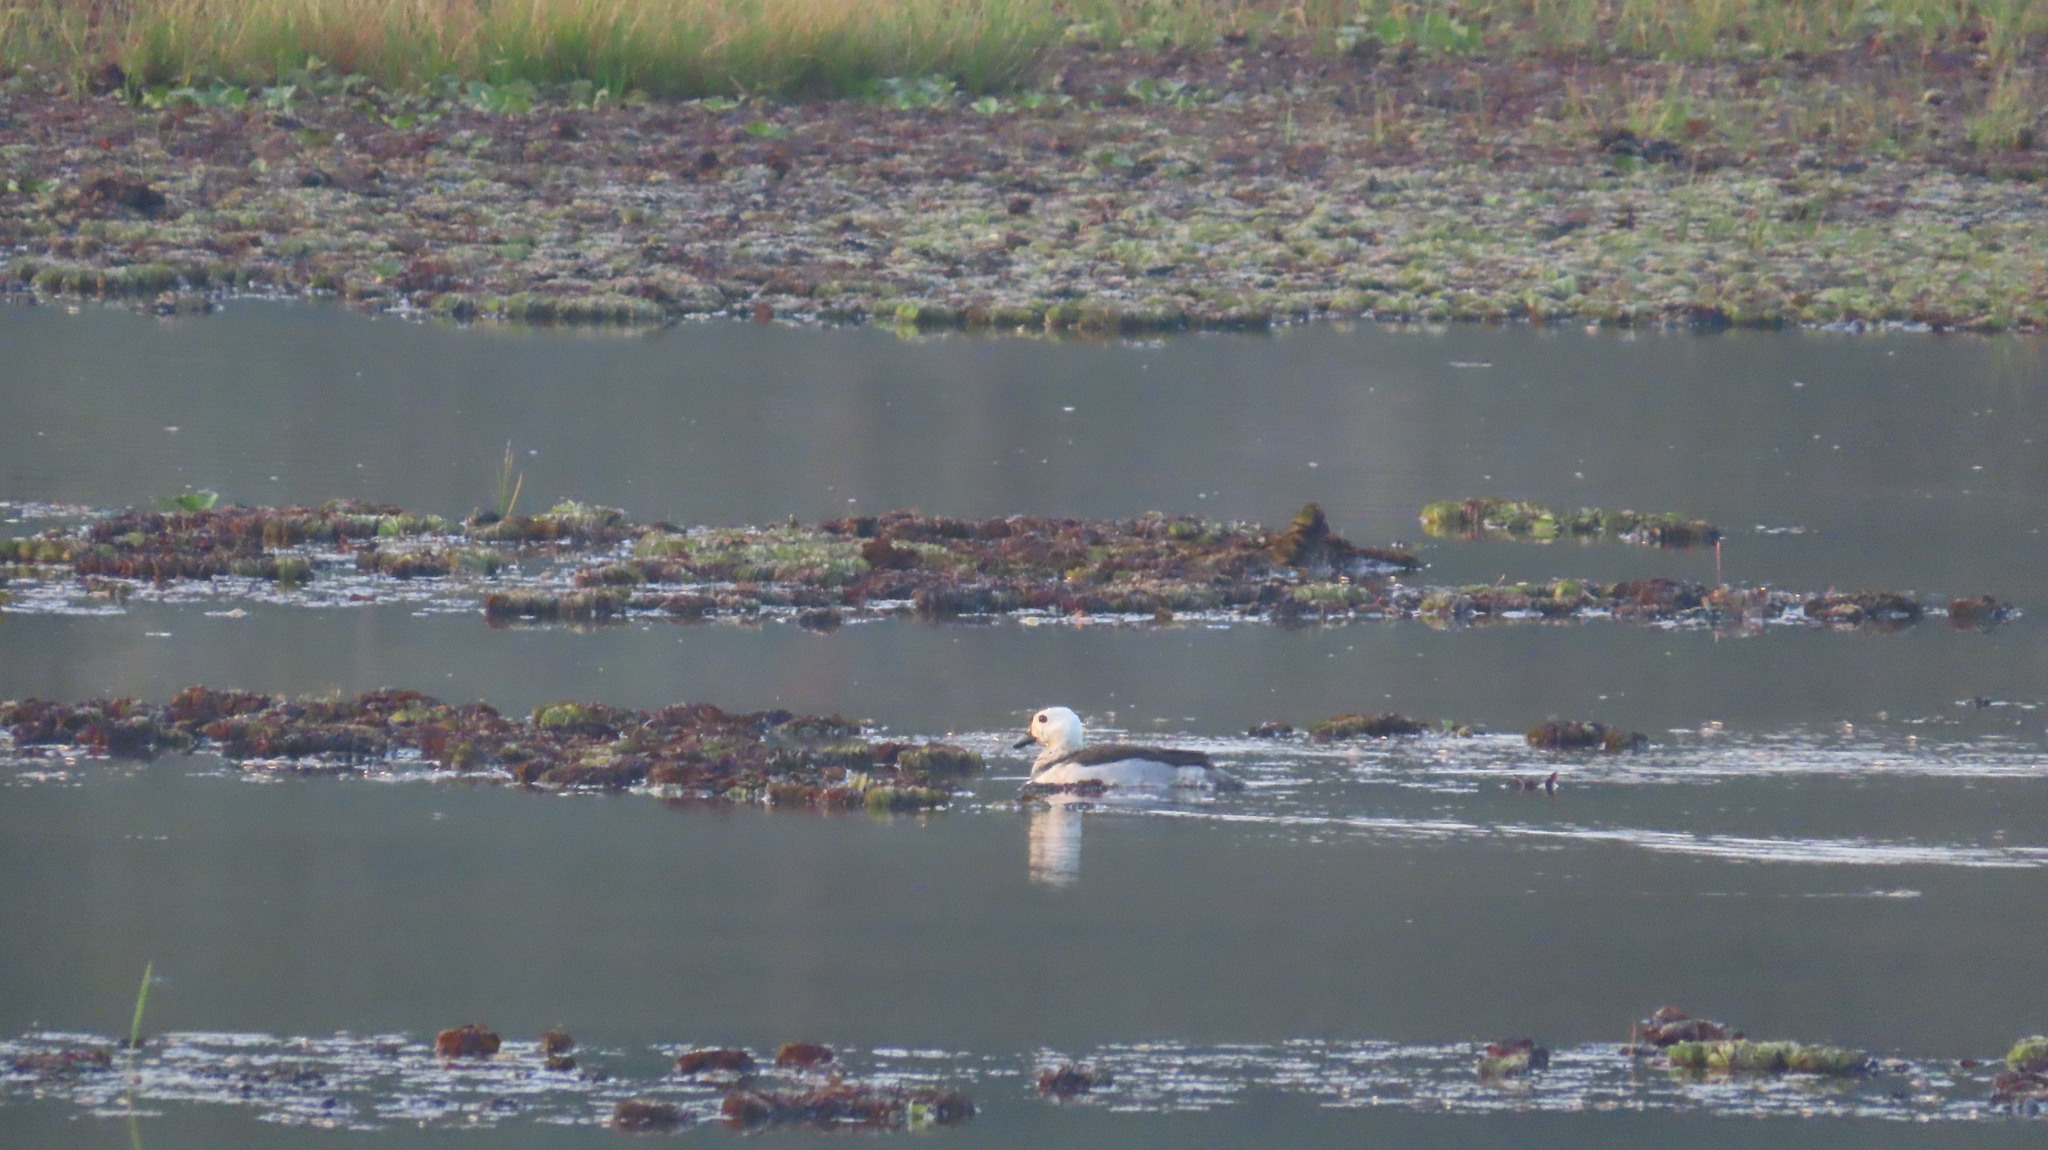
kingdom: Animalia
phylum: Chordata
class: Aves
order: Anseriformes
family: Anatidae
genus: Nettapus
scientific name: Nettapus coromandelianus
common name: Cotton pygmy-goose
